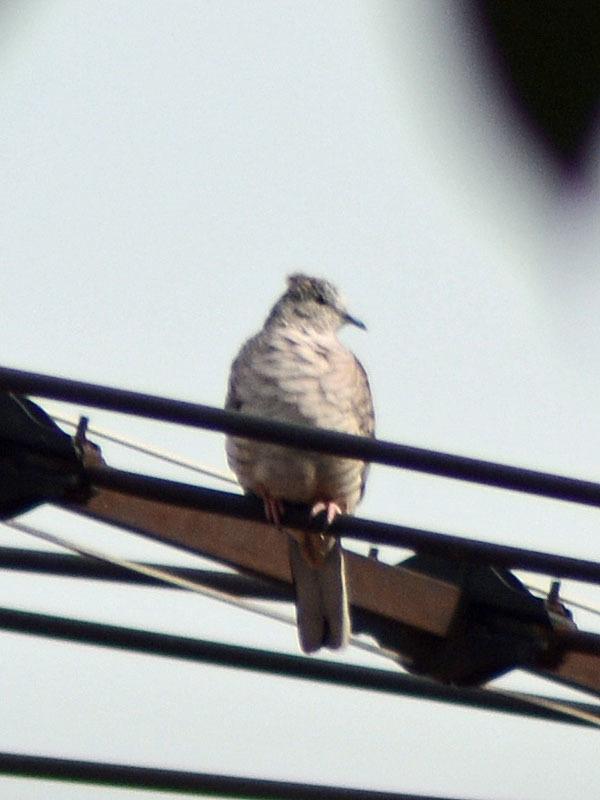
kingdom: Animalia
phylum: Chordata
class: Aves
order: Columbiformes
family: Columbidae
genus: Columbina
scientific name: Columbina inca
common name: Inca dove
